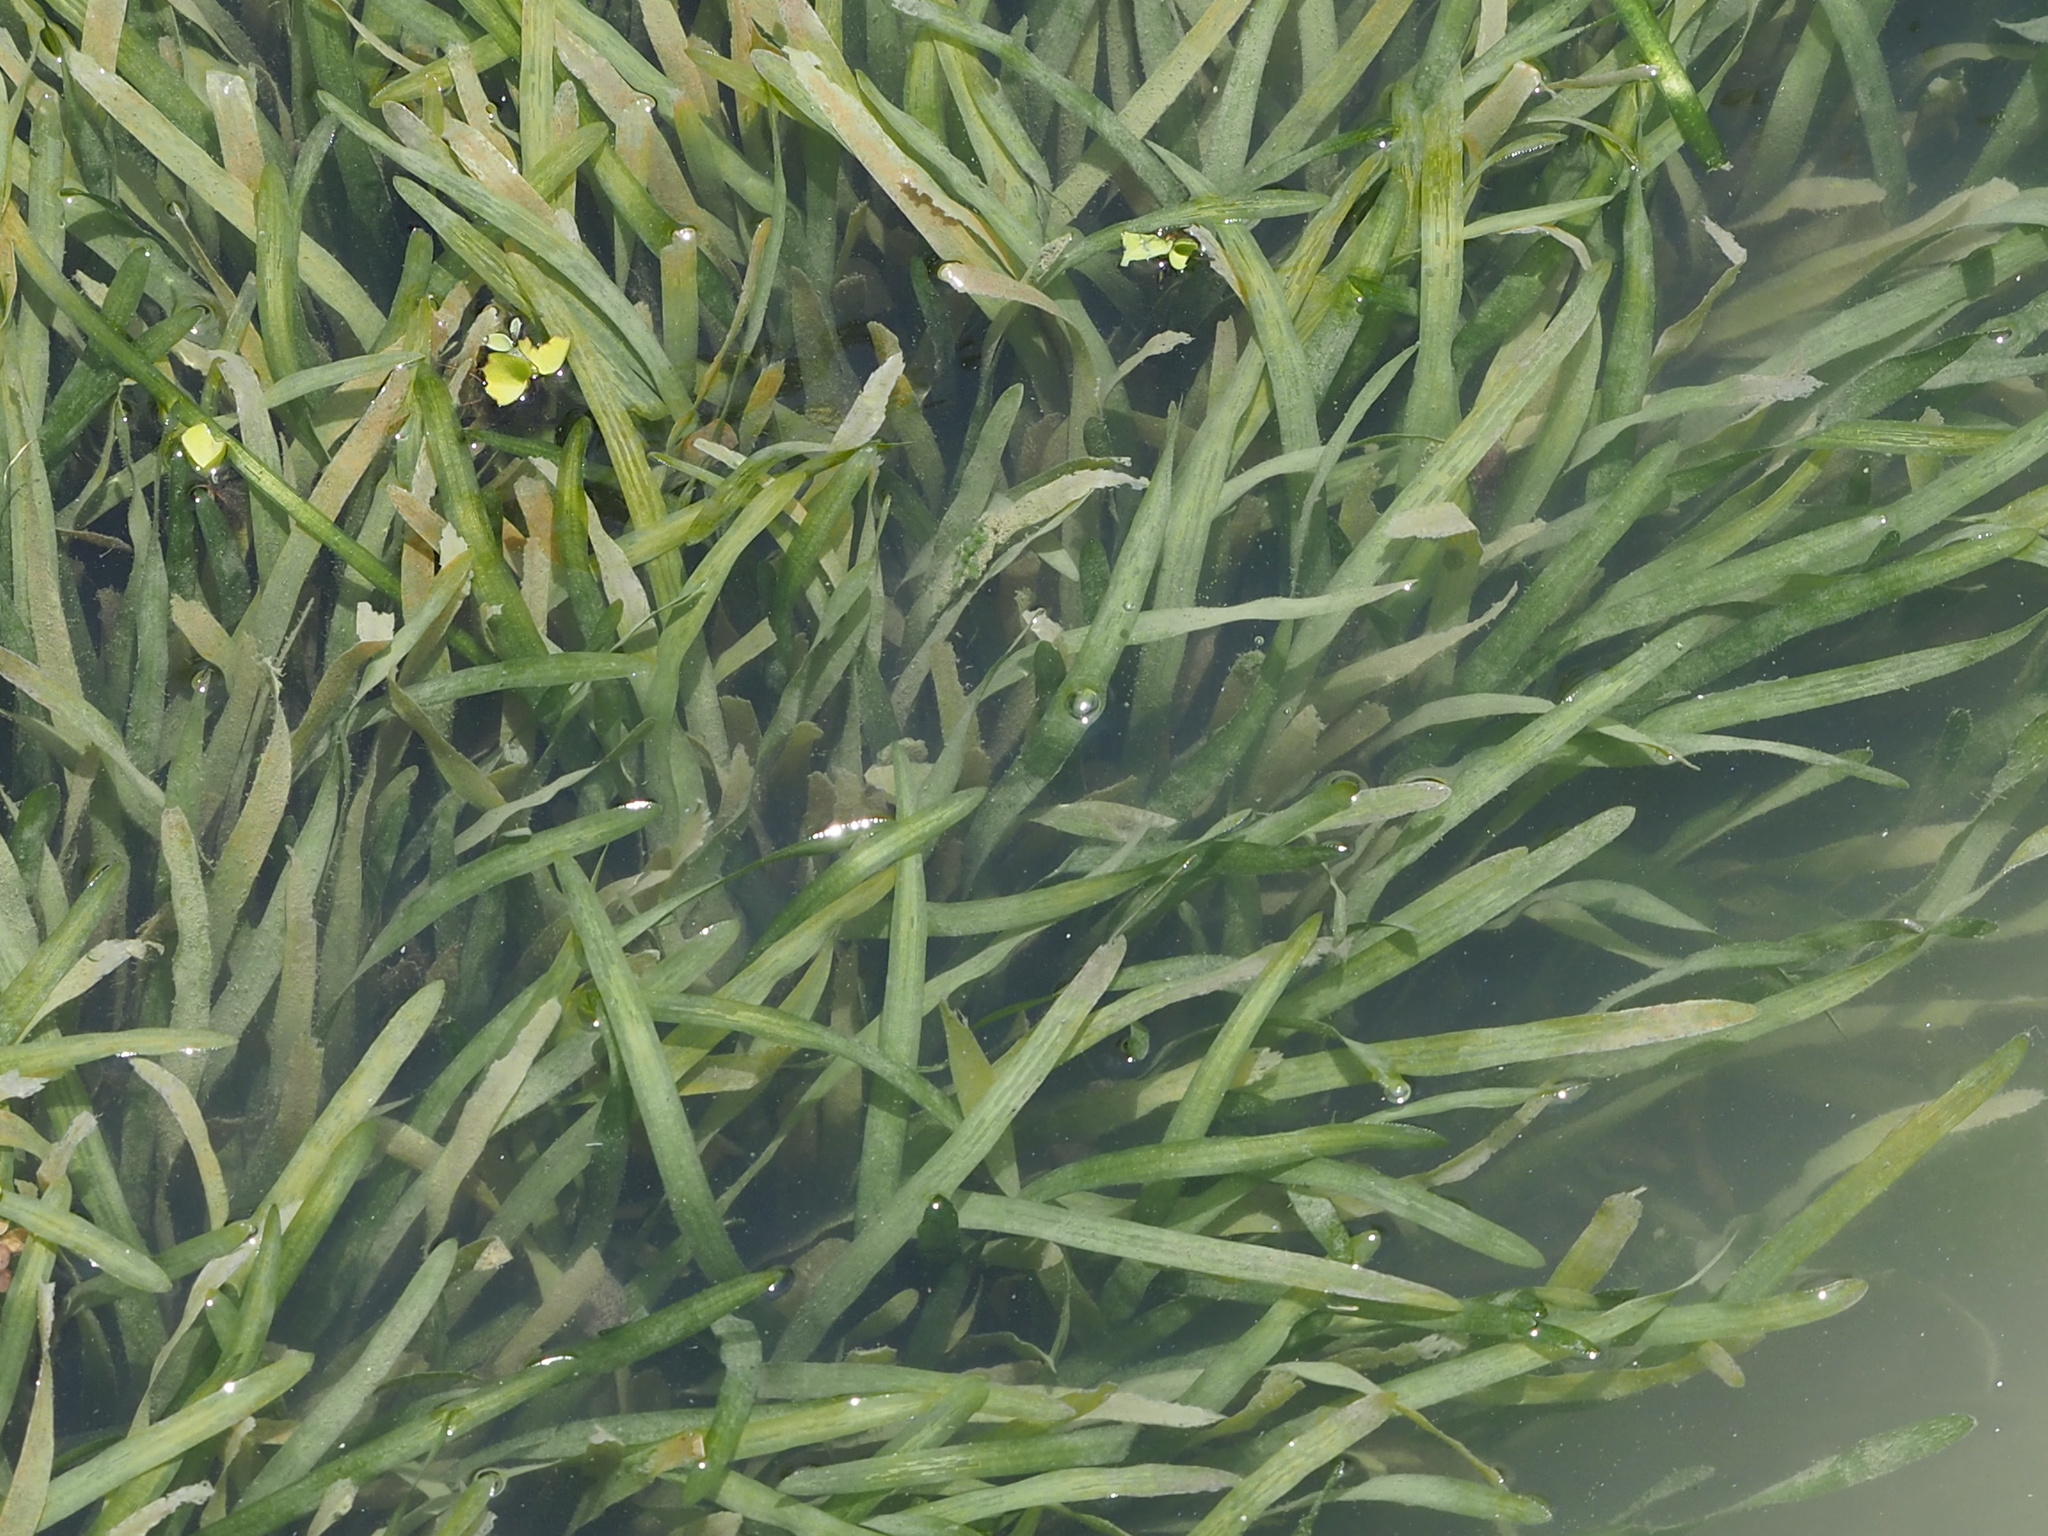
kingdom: Plantae
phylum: Tracheophyta
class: Liliopsida
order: Alismatales
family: Hydrocharitaceae
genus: Vallisneria
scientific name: Vallisneria
